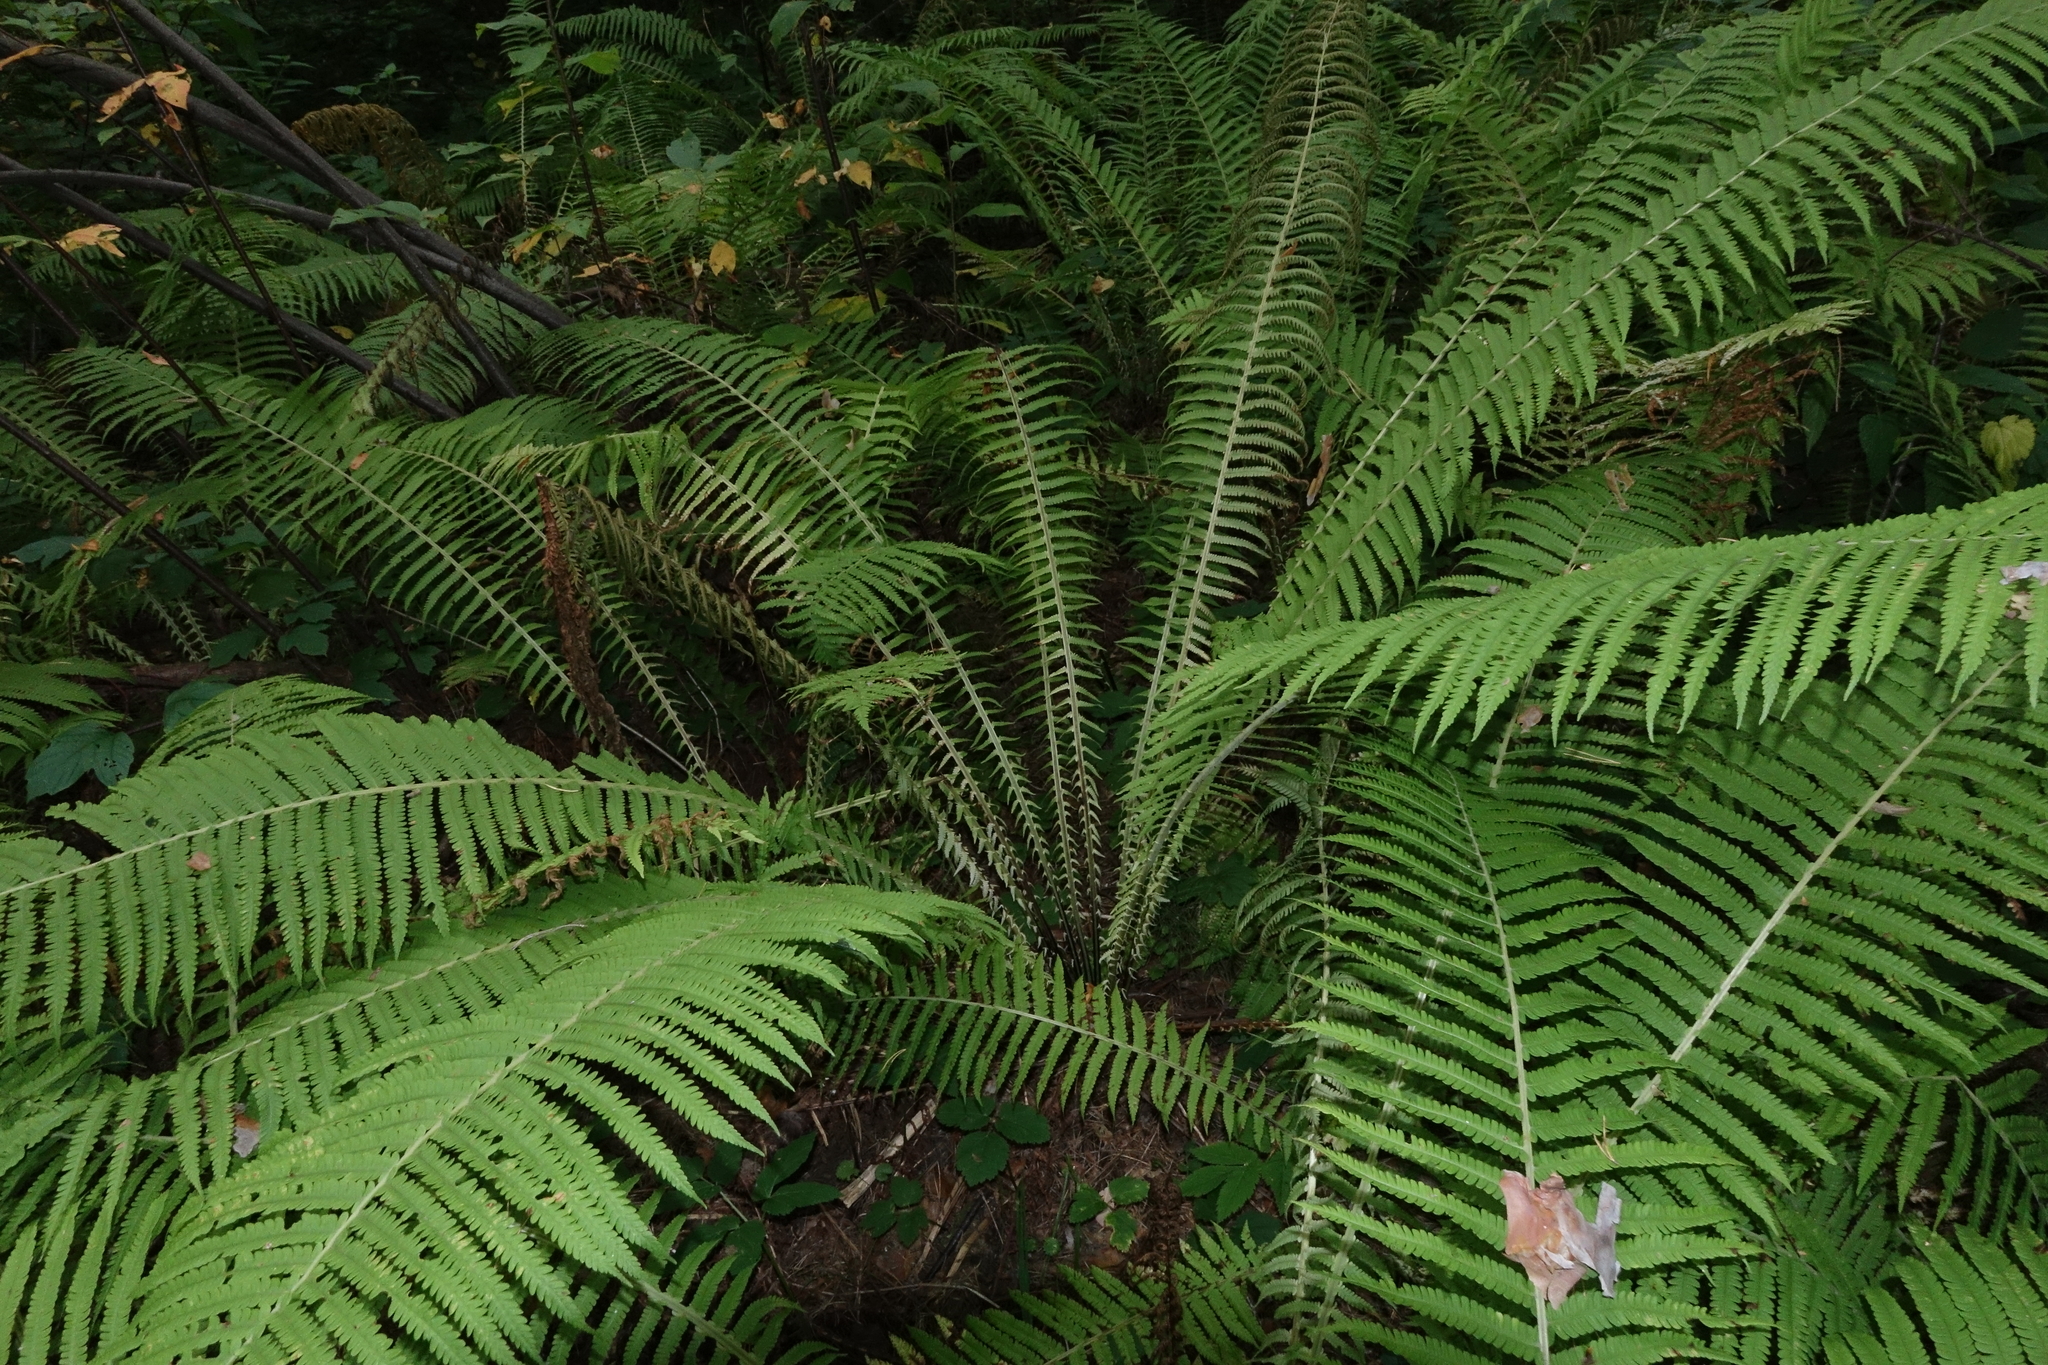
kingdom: Plantae
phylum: Tracheophyta
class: Polypodiopsida
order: Polypodiales
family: Onocleaceae
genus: Matteuccia
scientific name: Matteuccia struthiopteris
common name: Ostrich fern
